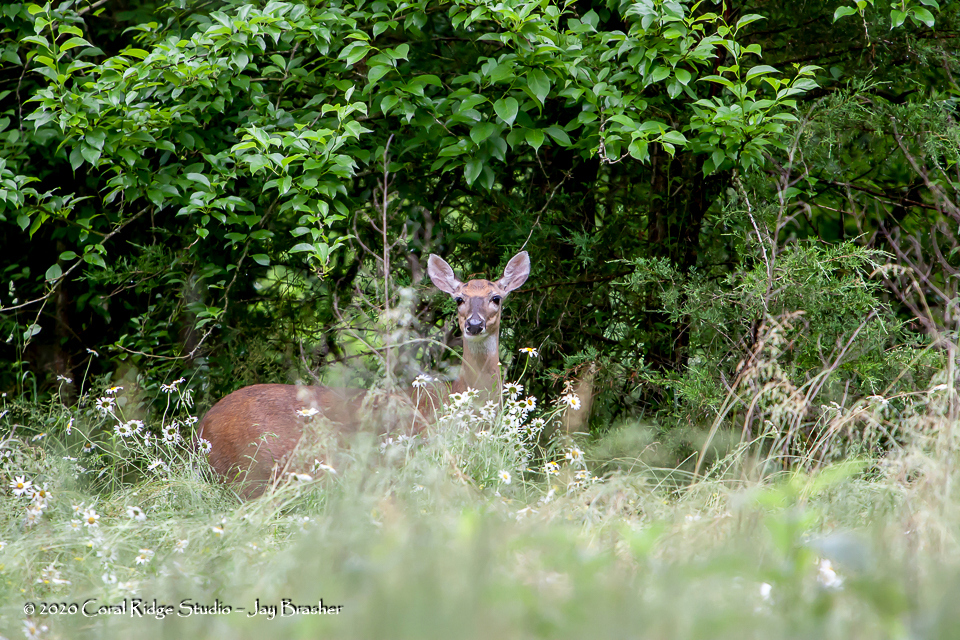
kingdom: Animalia
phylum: Chordata
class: Mammalia
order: Artiodactyla
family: Cervidae
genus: Odocoileus
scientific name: Odocoileus virginianus
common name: White-tailed deer
